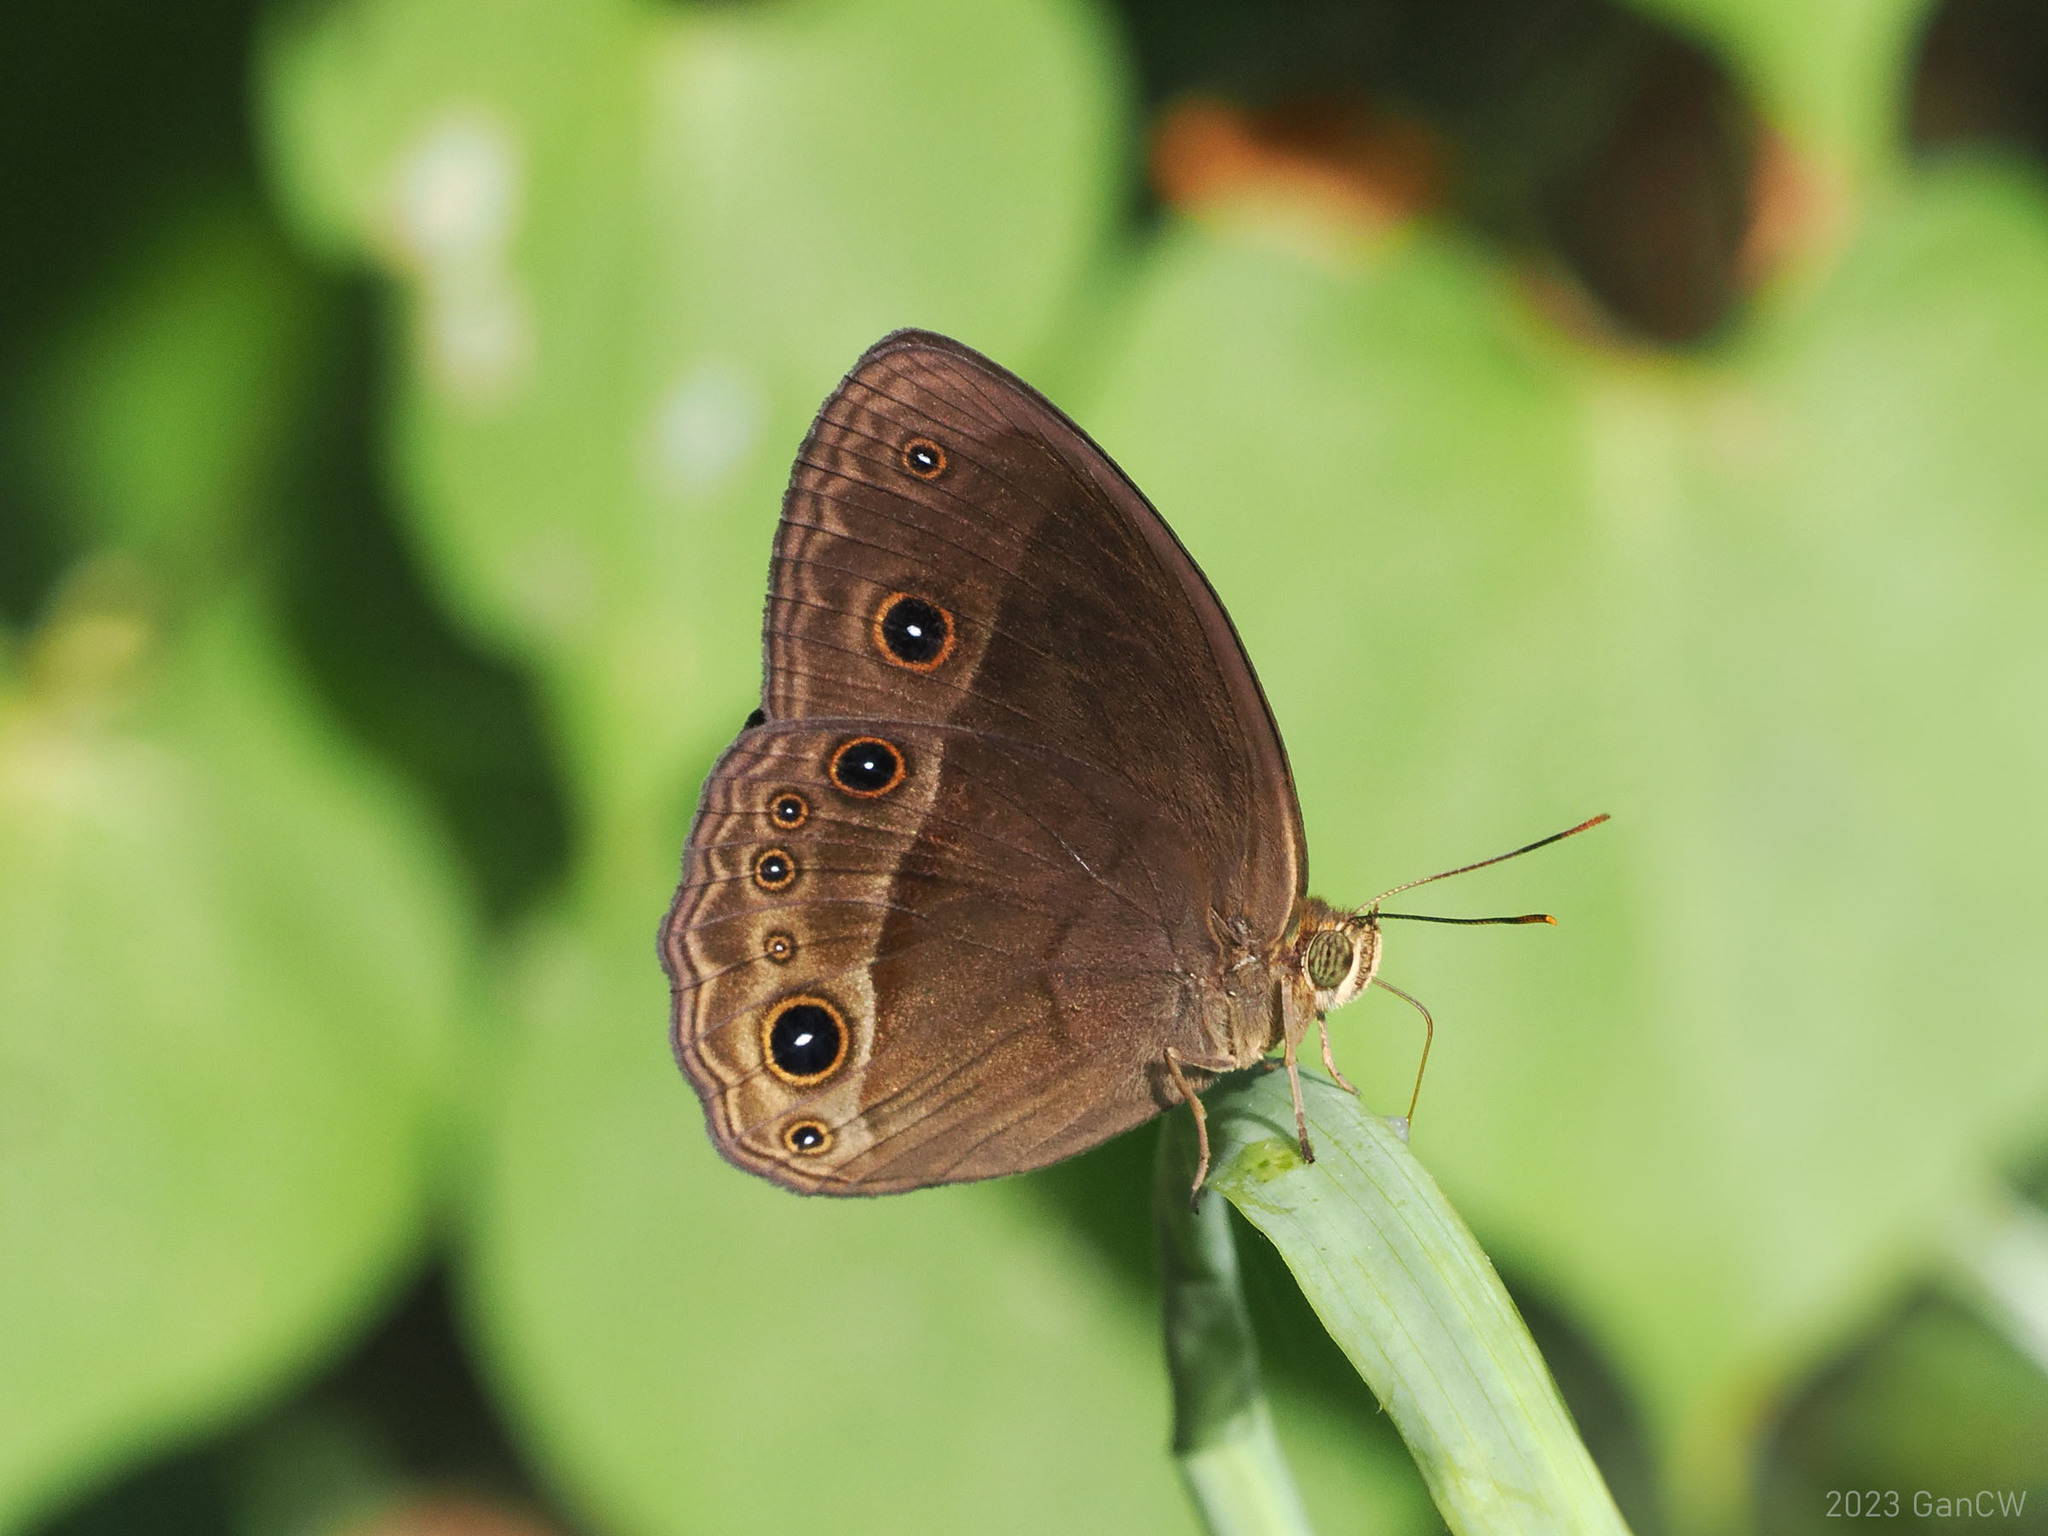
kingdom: Animalia
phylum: Arthropoda
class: Insecta
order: Lepidoptera
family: Nymphalidae
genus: Mycalesis
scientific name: Mycalesis tagala
